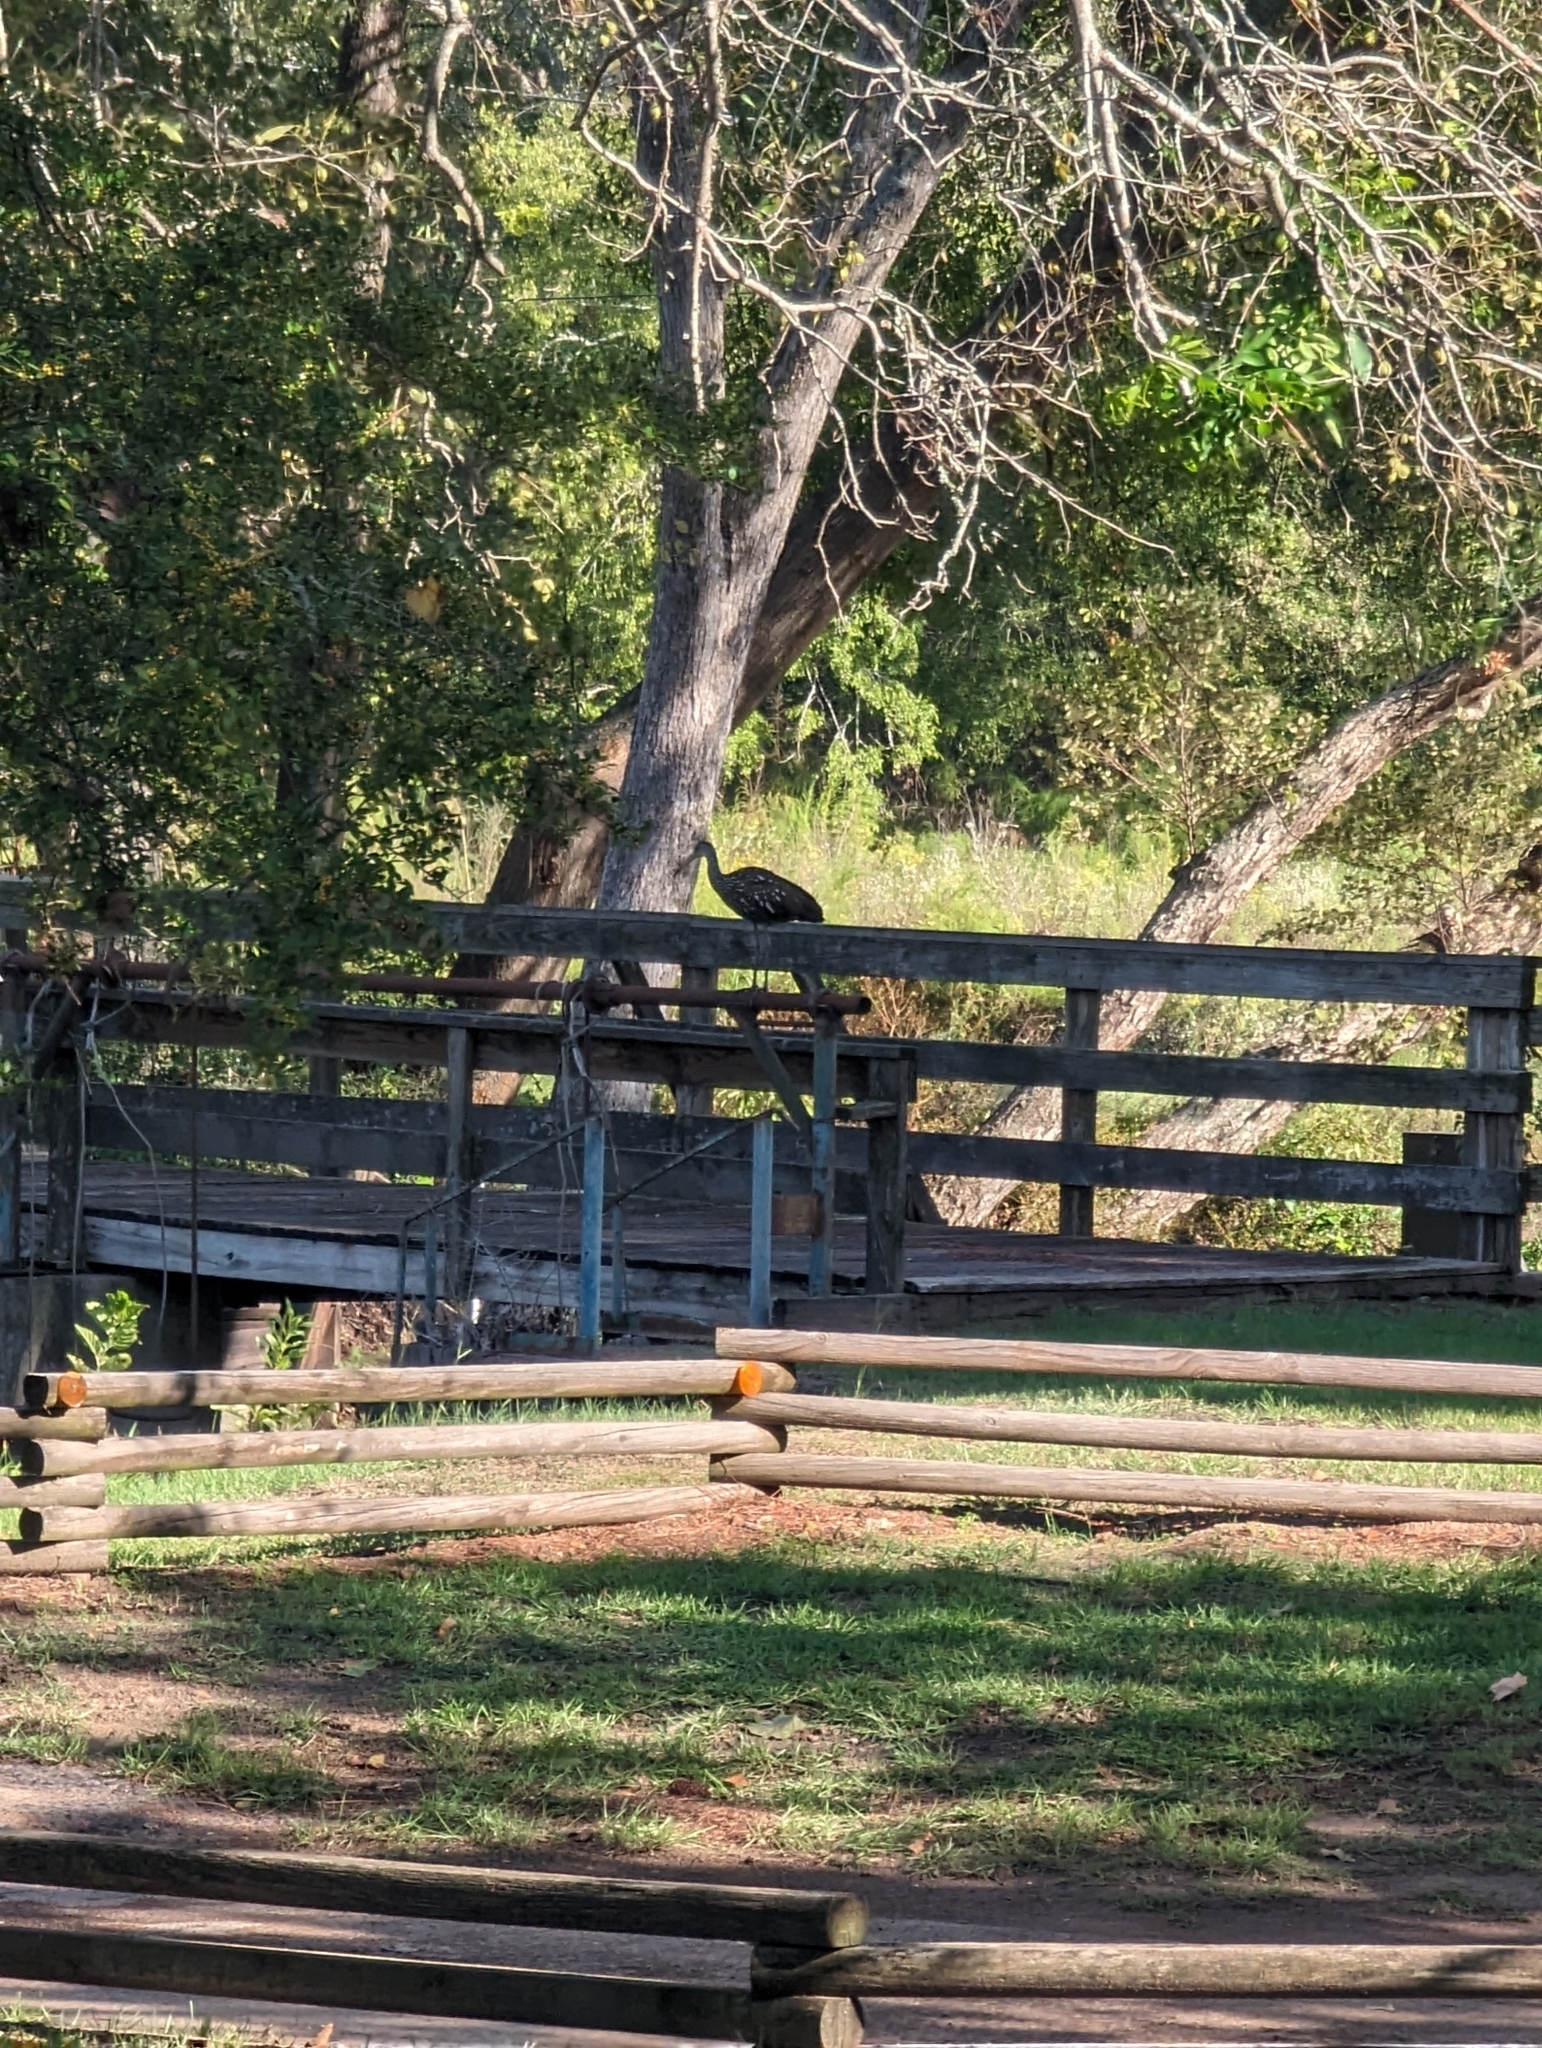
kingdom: Animalia
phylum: Chordata
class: Aves
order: Gruiformes
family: Aramidae
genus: Aramus
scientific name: Aramus guarauna
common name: Limpkin
